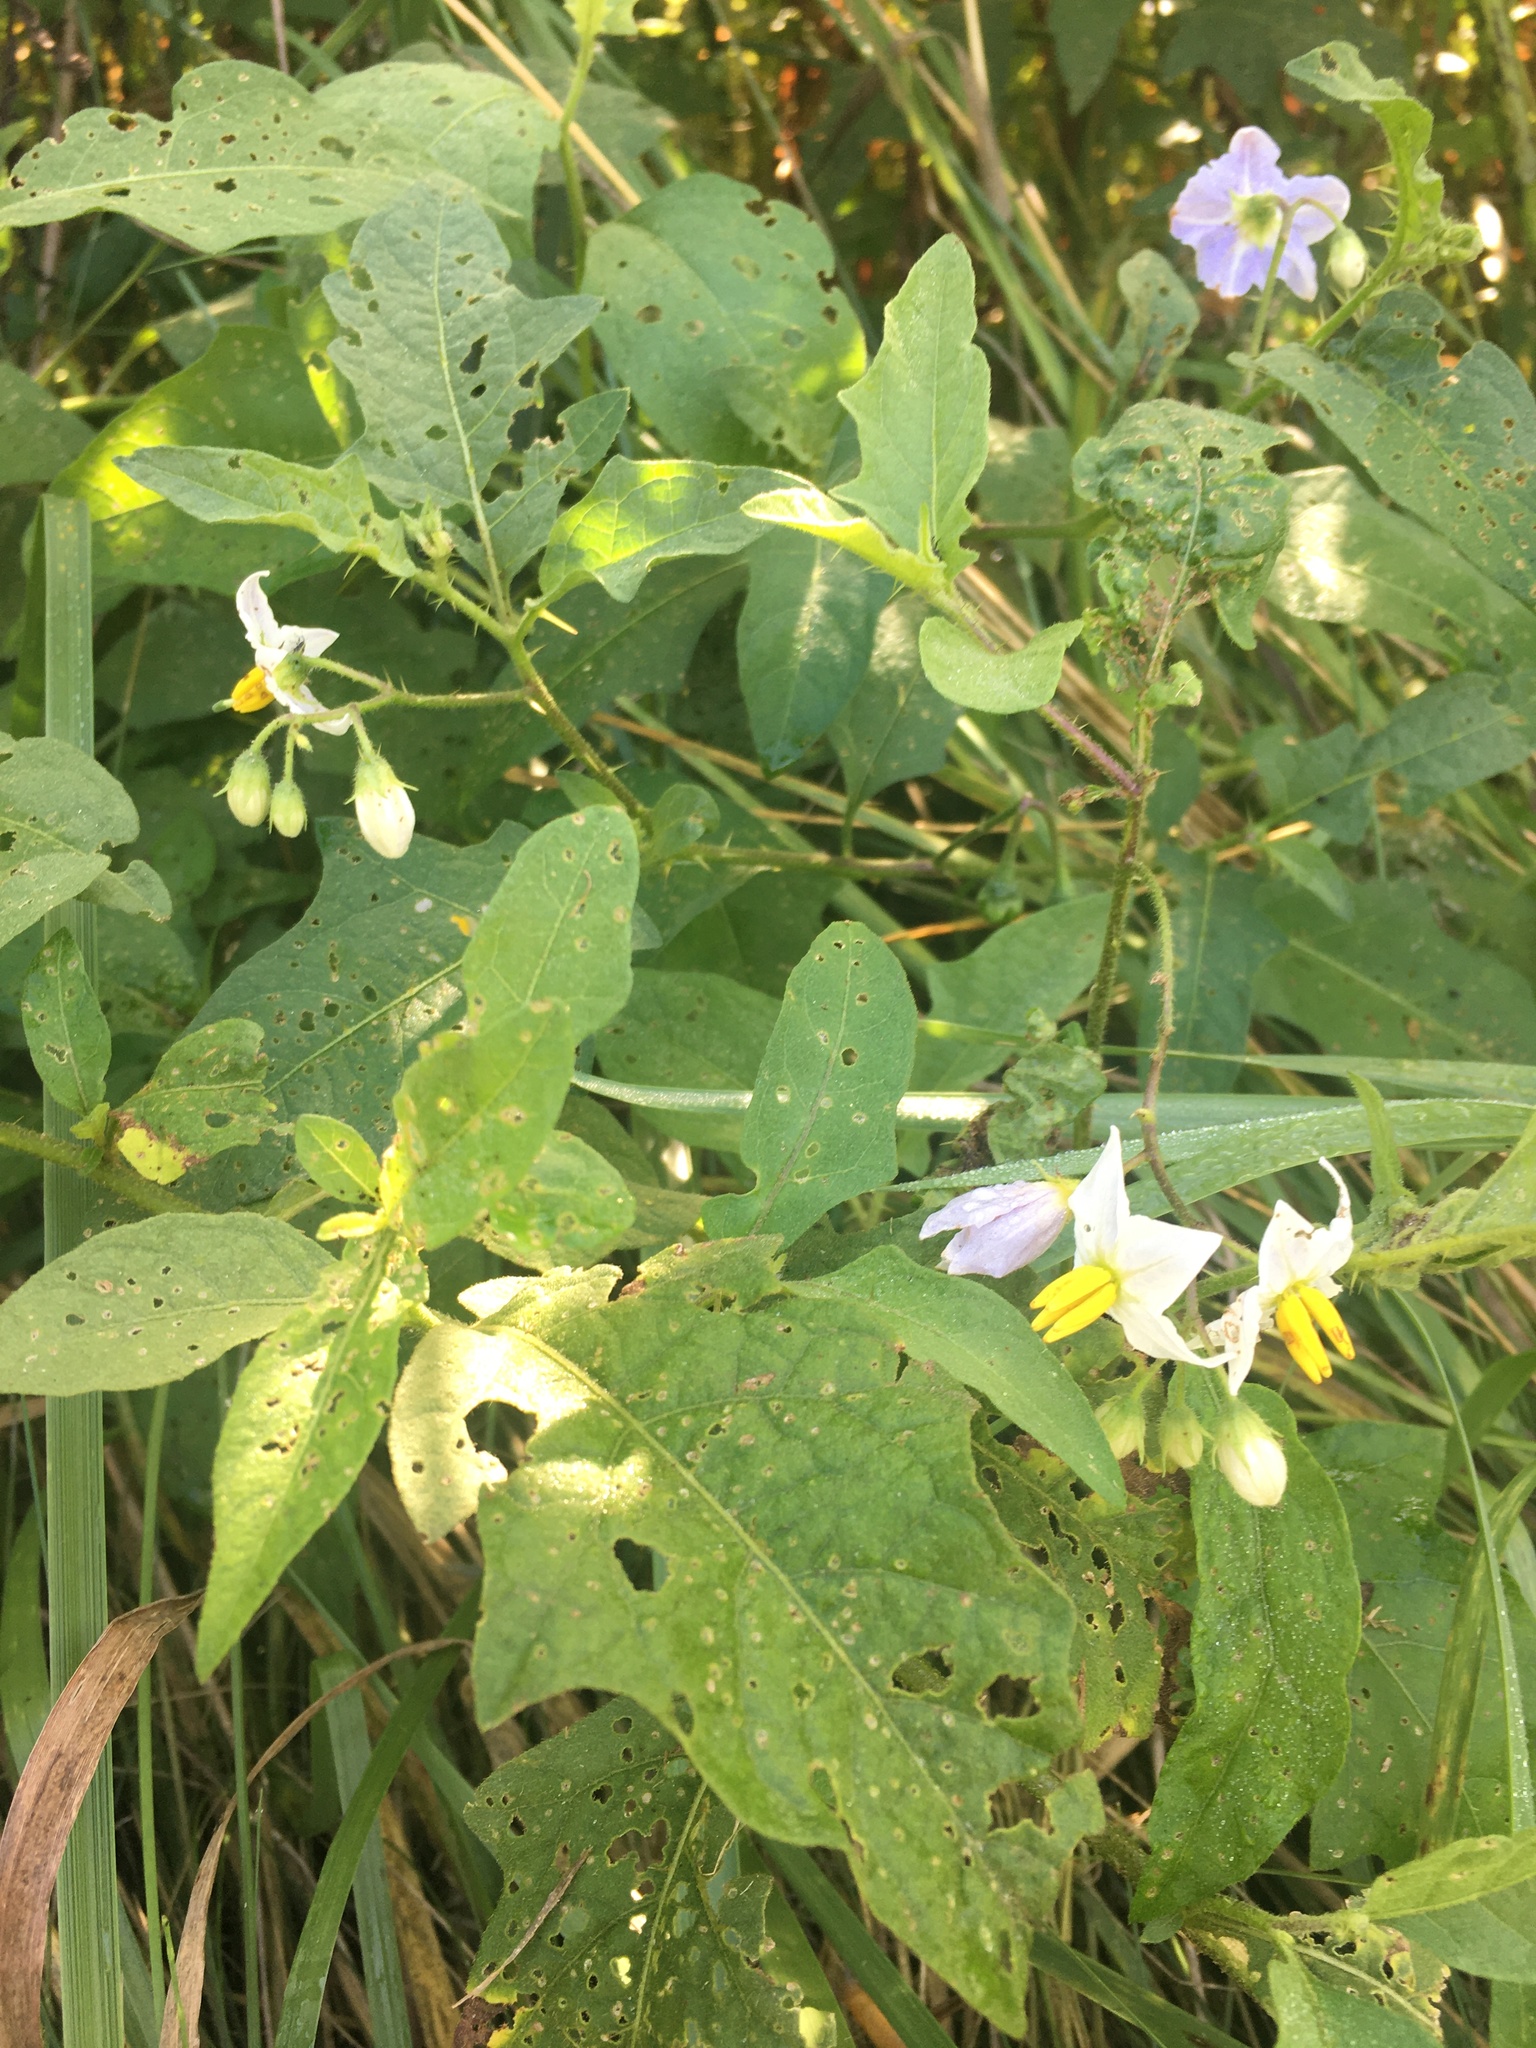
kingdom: Plantae
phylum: Tracheophyta
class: Magnoliopsida
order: Solanales
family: Solanaceae
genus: Solanum
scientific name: Solanum carolinense
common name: Horse-nettle
